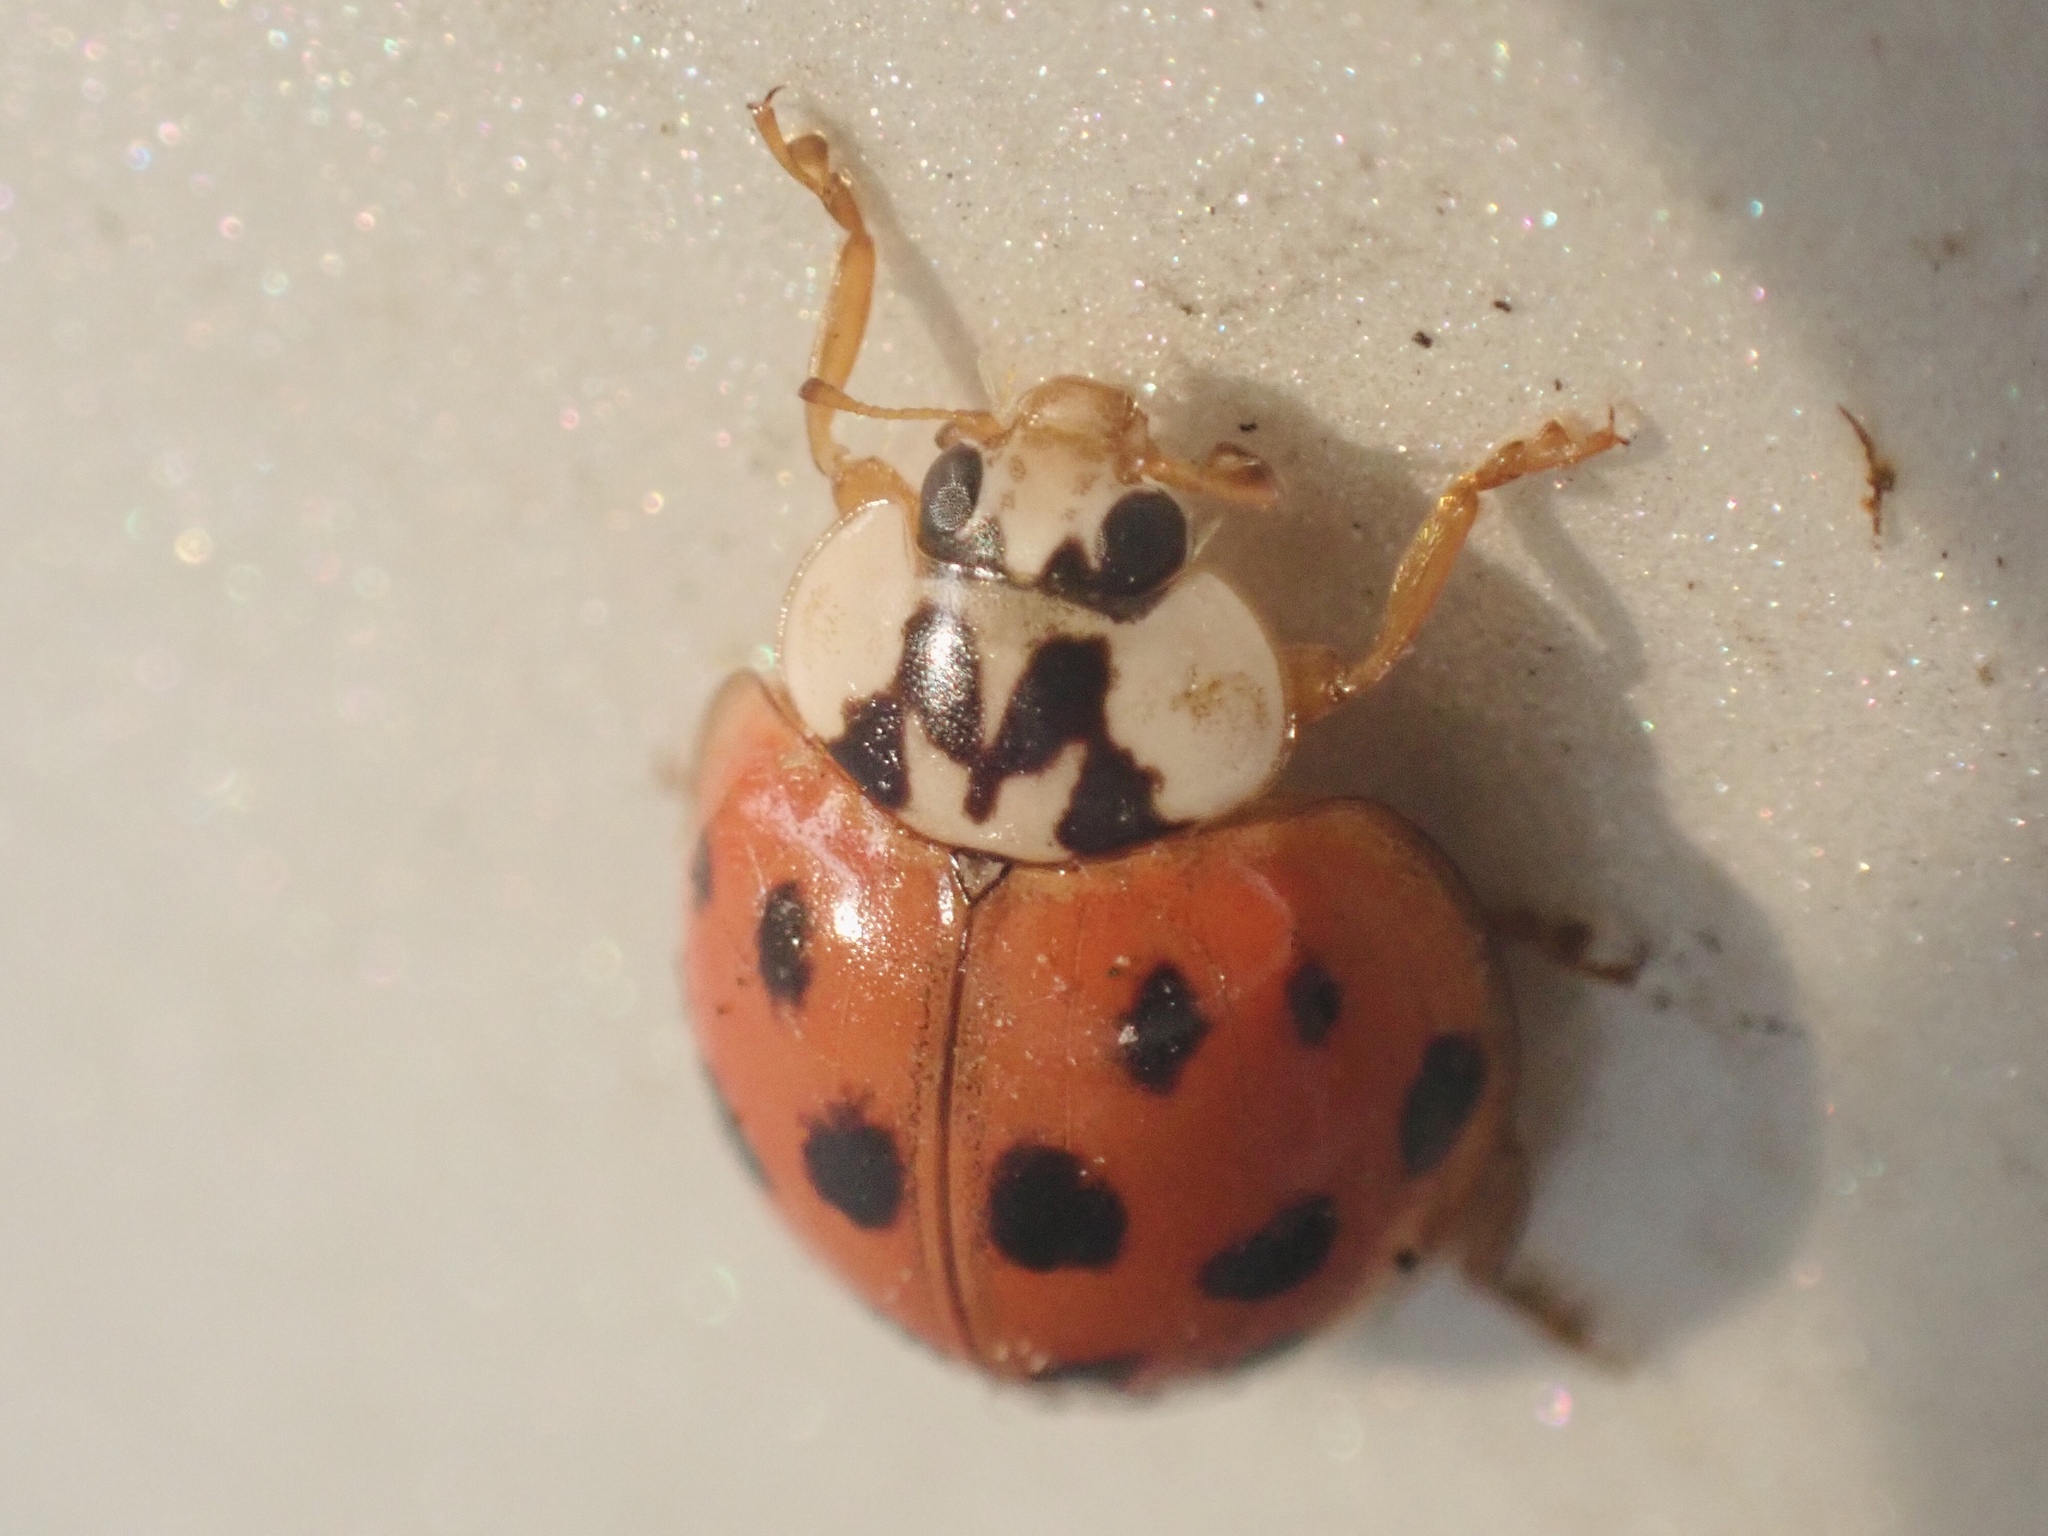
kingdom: Animalia
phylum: Arthropoda
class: Insecta
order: Coleoptera
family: Coccinellidae
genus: Harmonia
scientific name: Harmonia axyridis
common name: Harlequin ladybird
